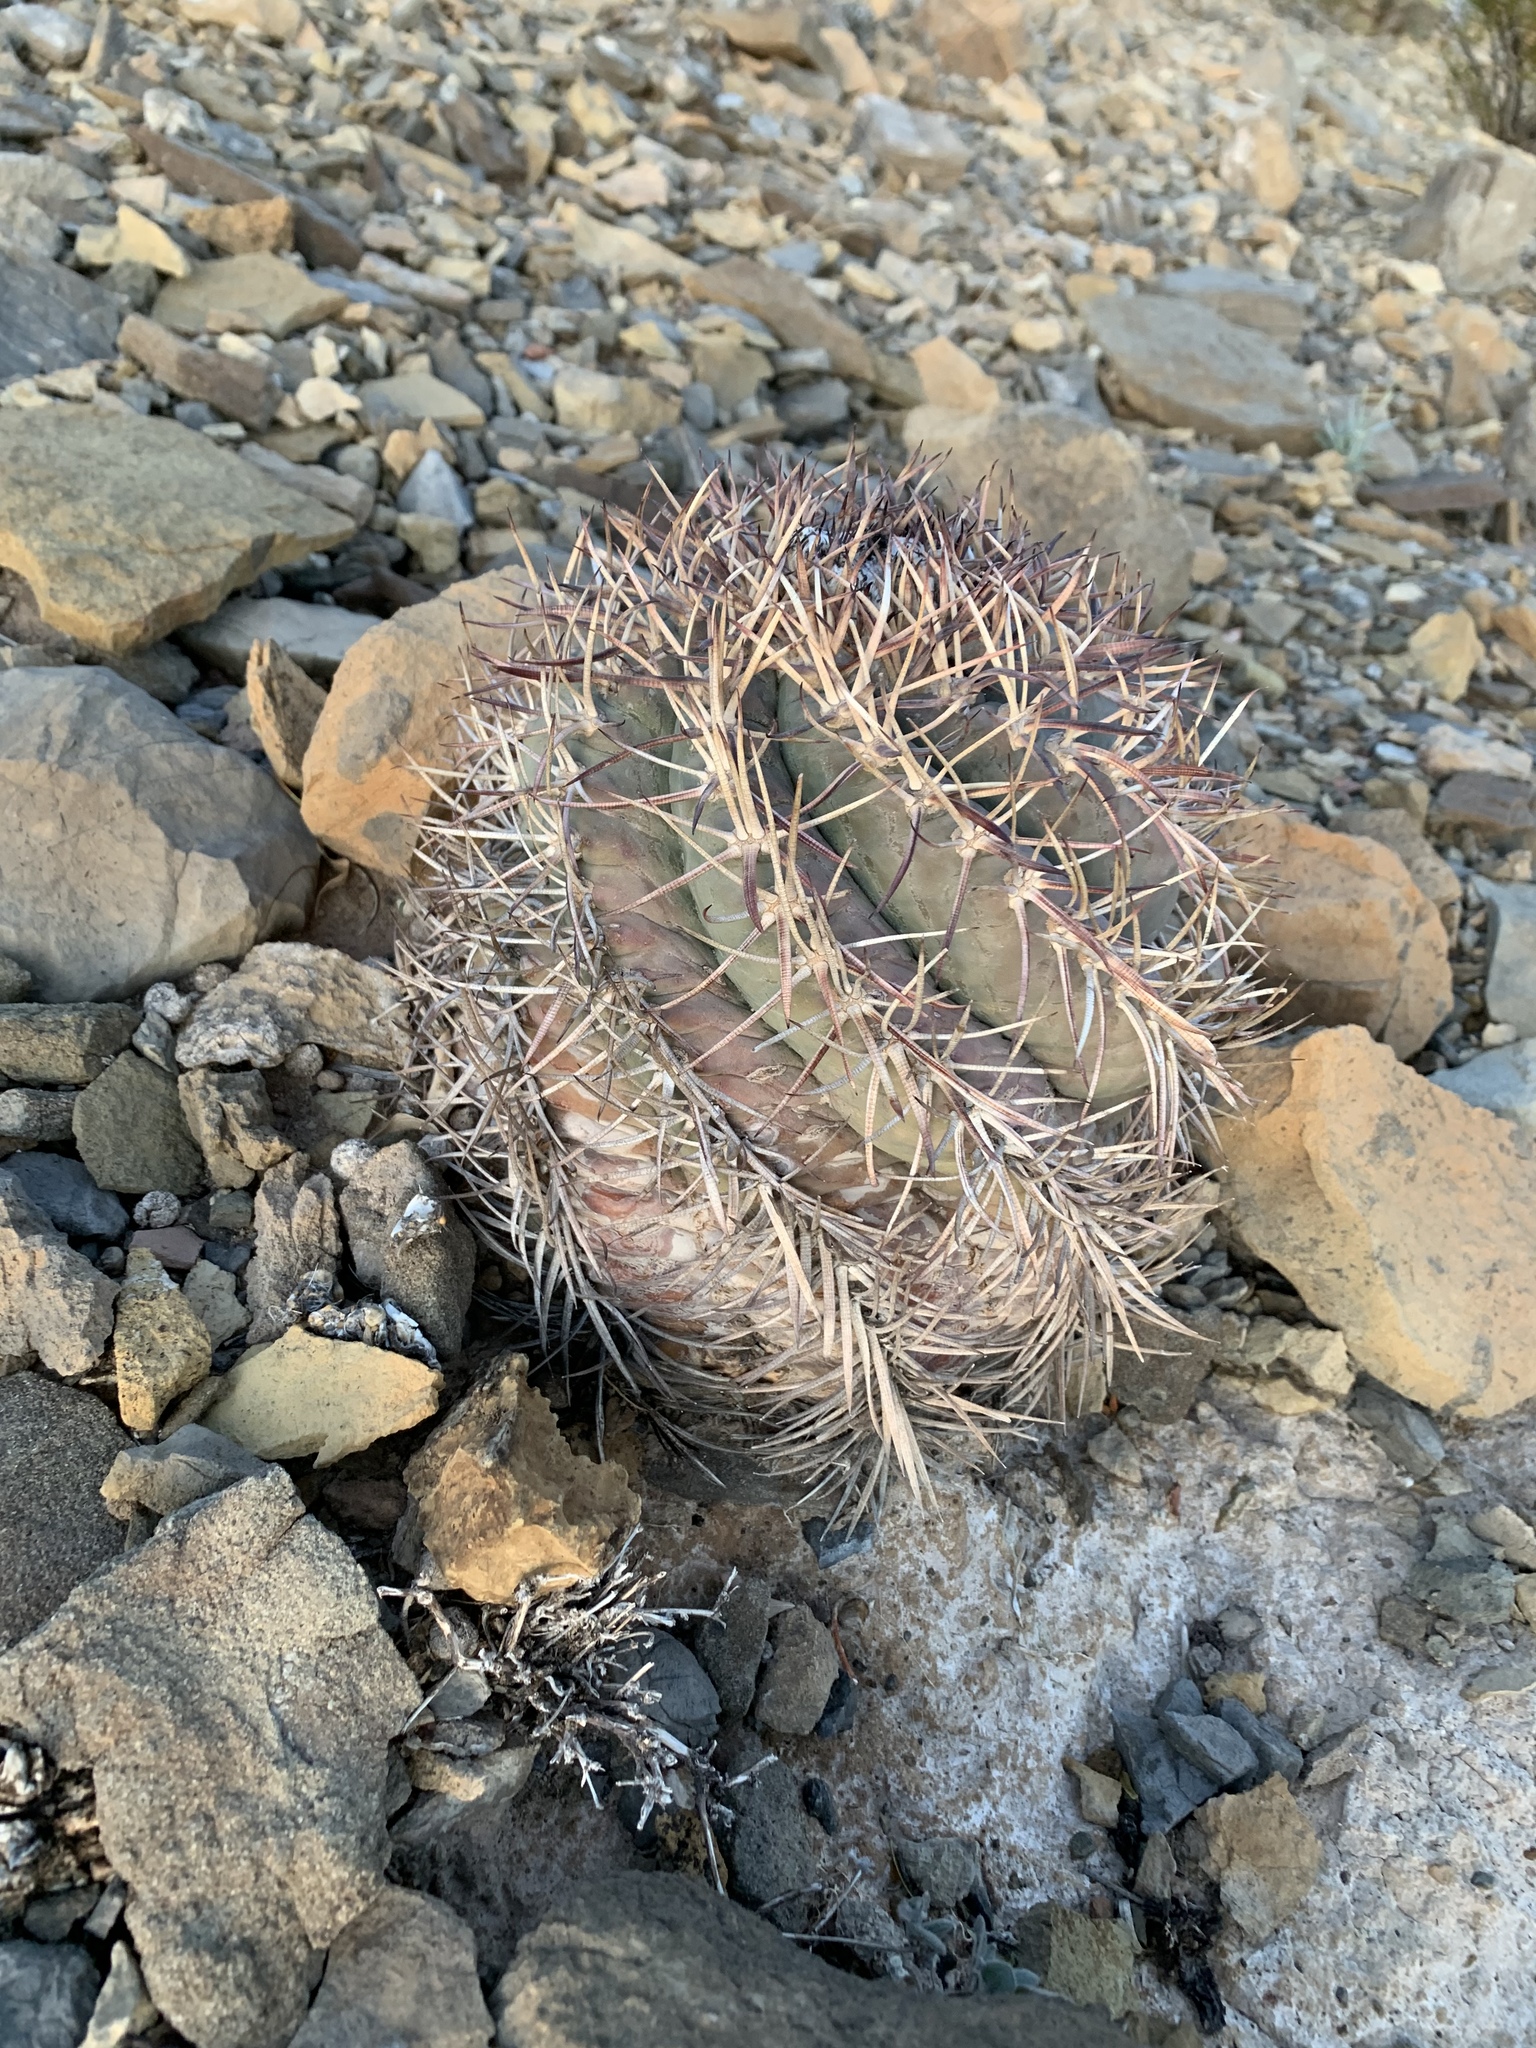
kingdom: Plantae
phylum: Tracheophyta
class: Magnoliopsida
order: Caryophyllales
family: Cactaceae
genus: Echinocactus
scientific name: Echinocactus horizonthalonius
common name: Devilshead
